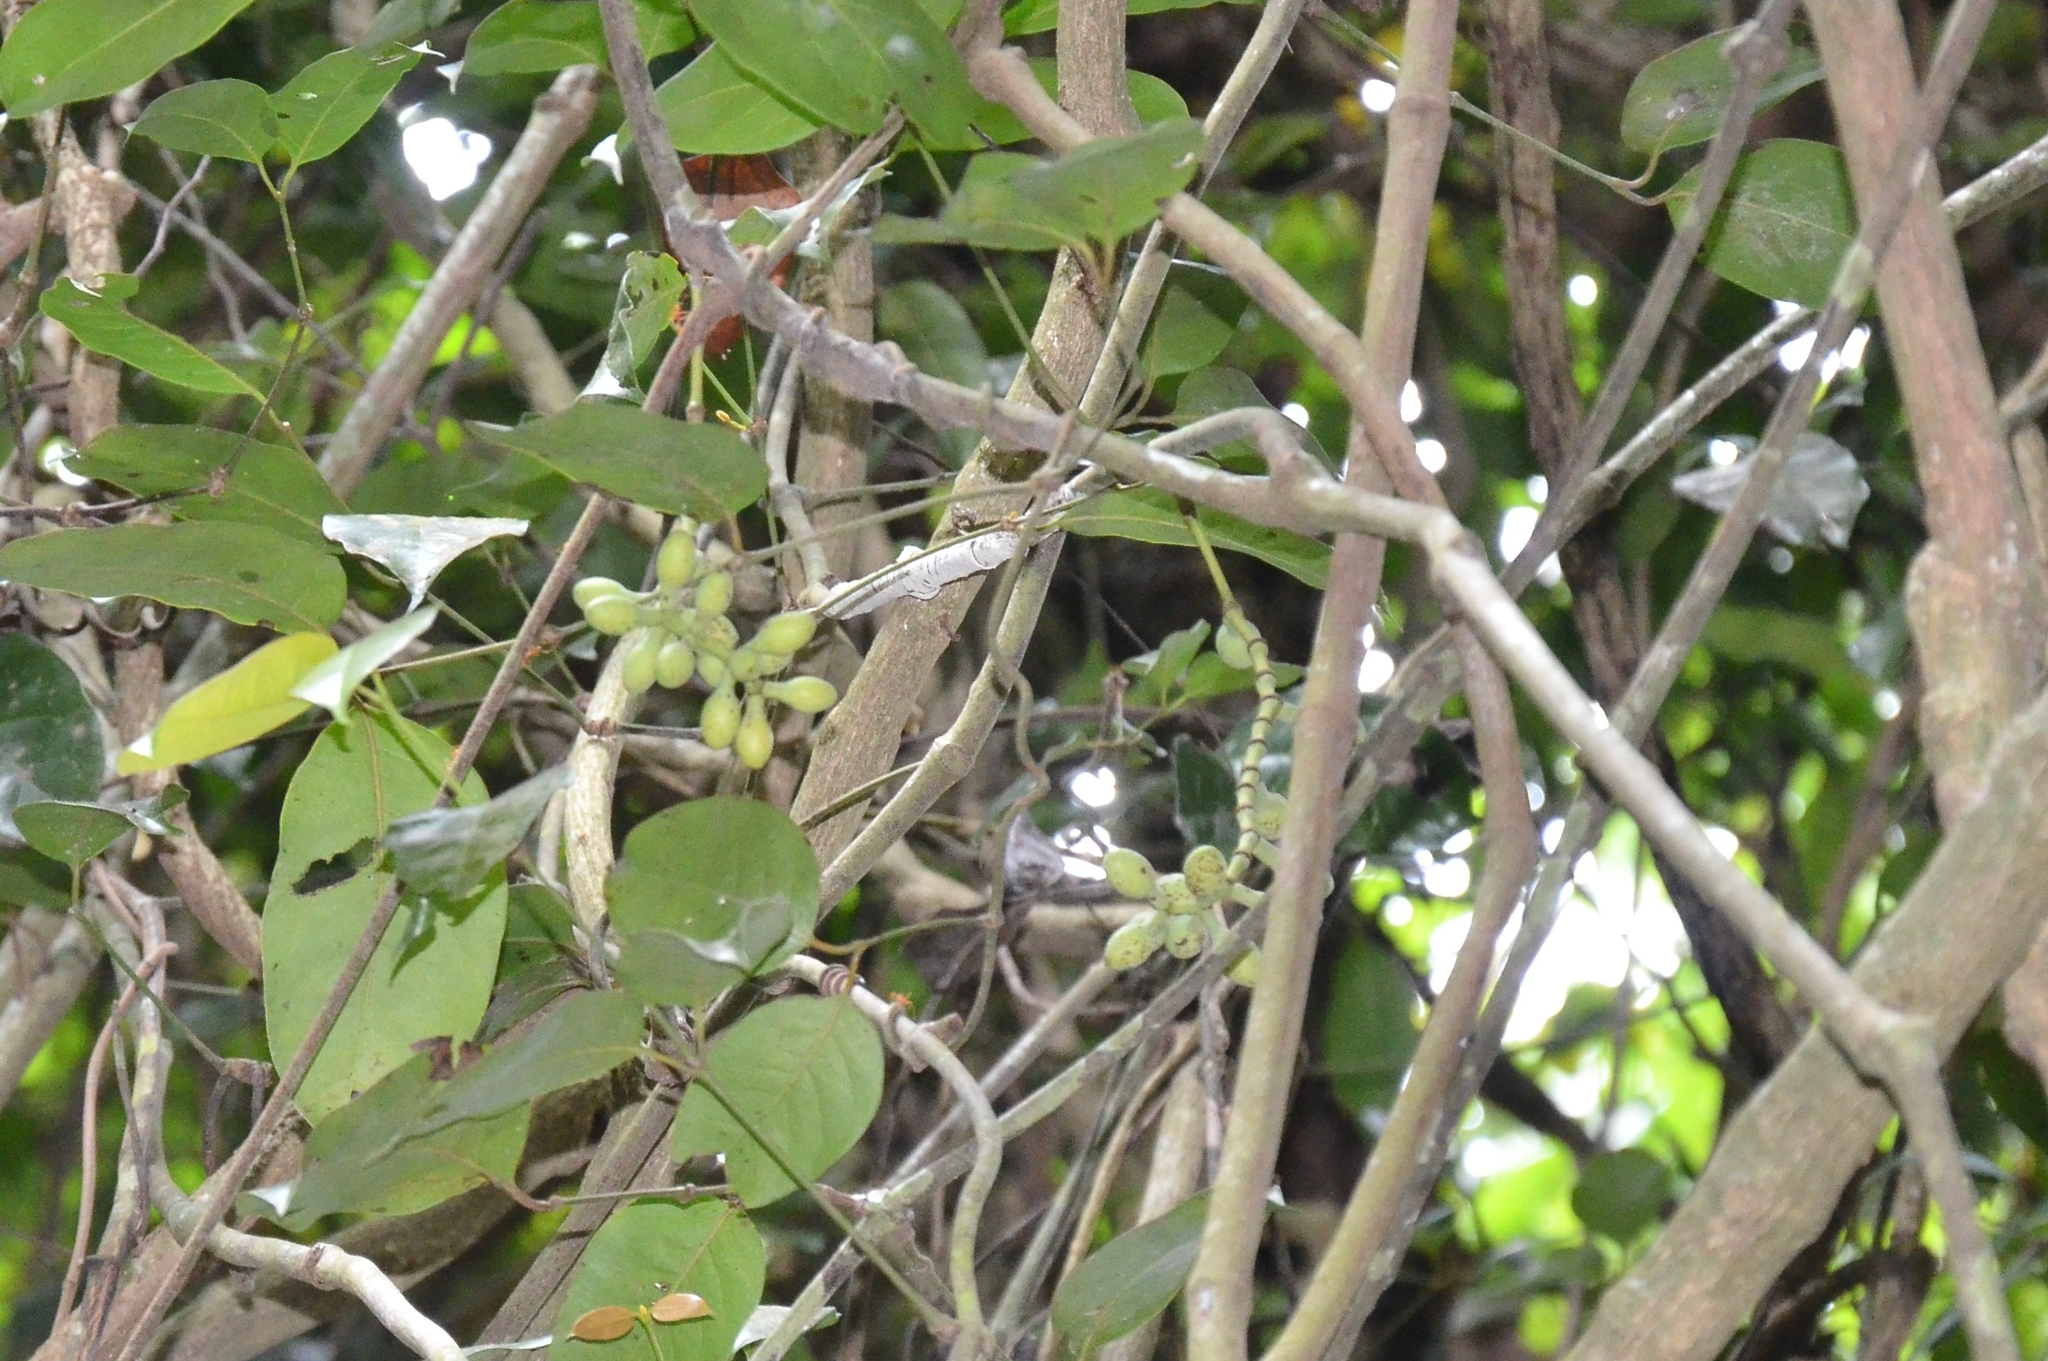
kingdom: Plantae
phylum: Tracheophyta
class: Gnetopsida
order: Gnetales
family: Gnetaceae
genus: Gnetum
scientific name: Gnetum edule
